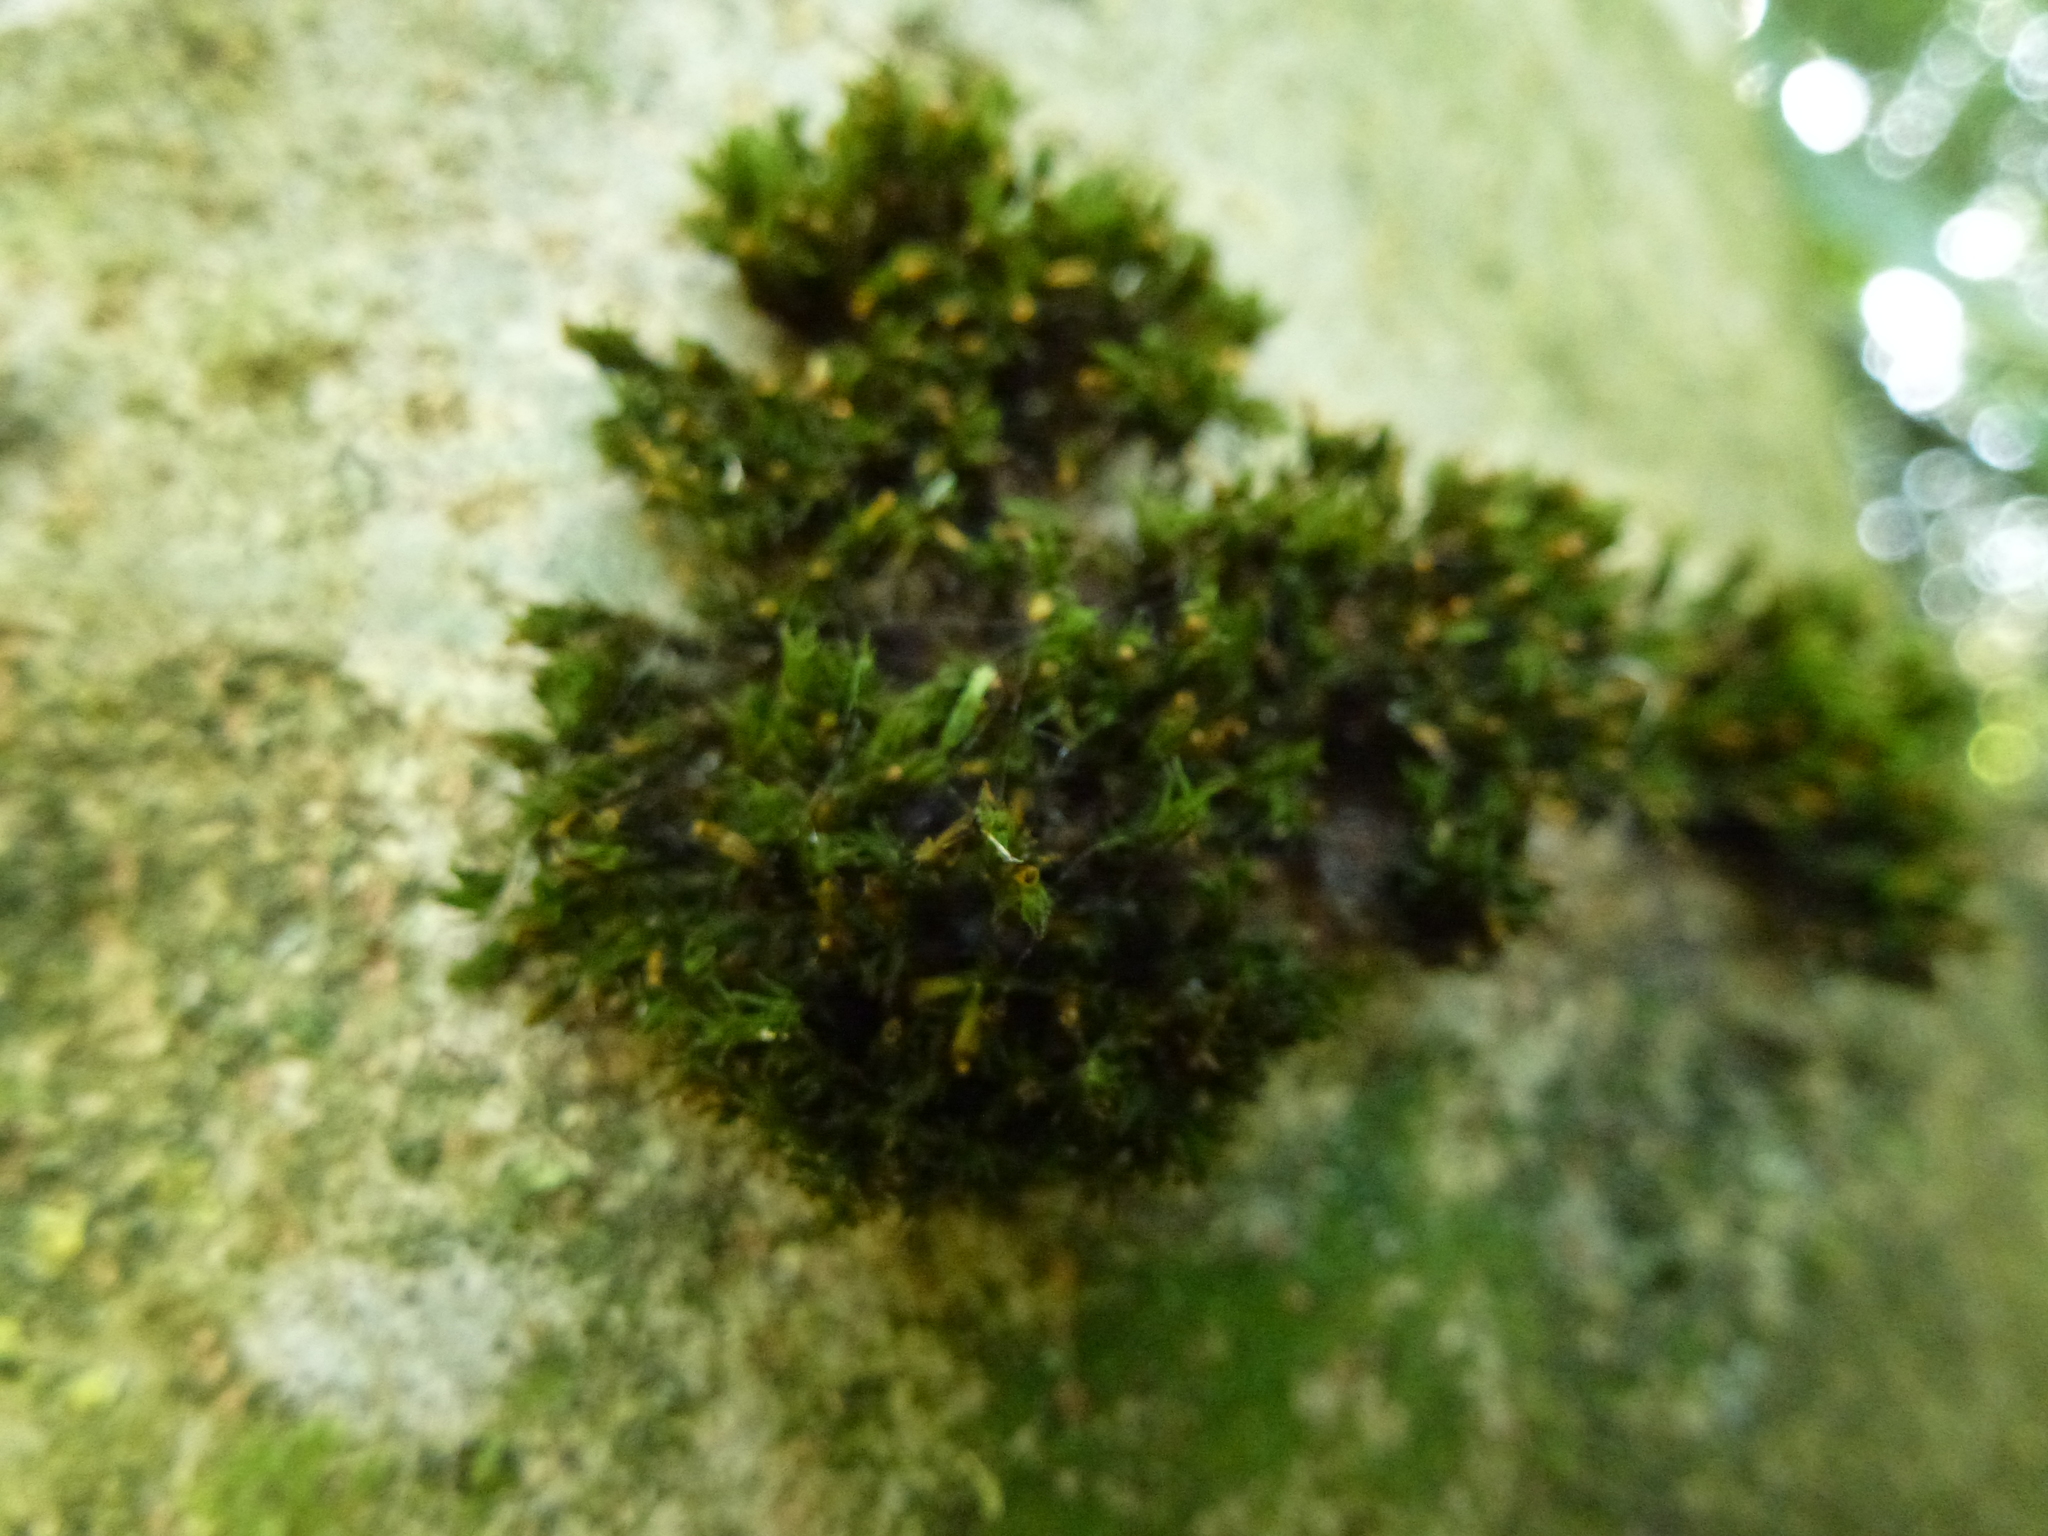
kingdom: Plantae
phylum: Bryophyta
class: Bryopsida
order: Orthotrichales
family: Orthotrichaceae
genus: Lewinskya
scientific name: Lewinskya affinis
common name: Wood bristle-moss
